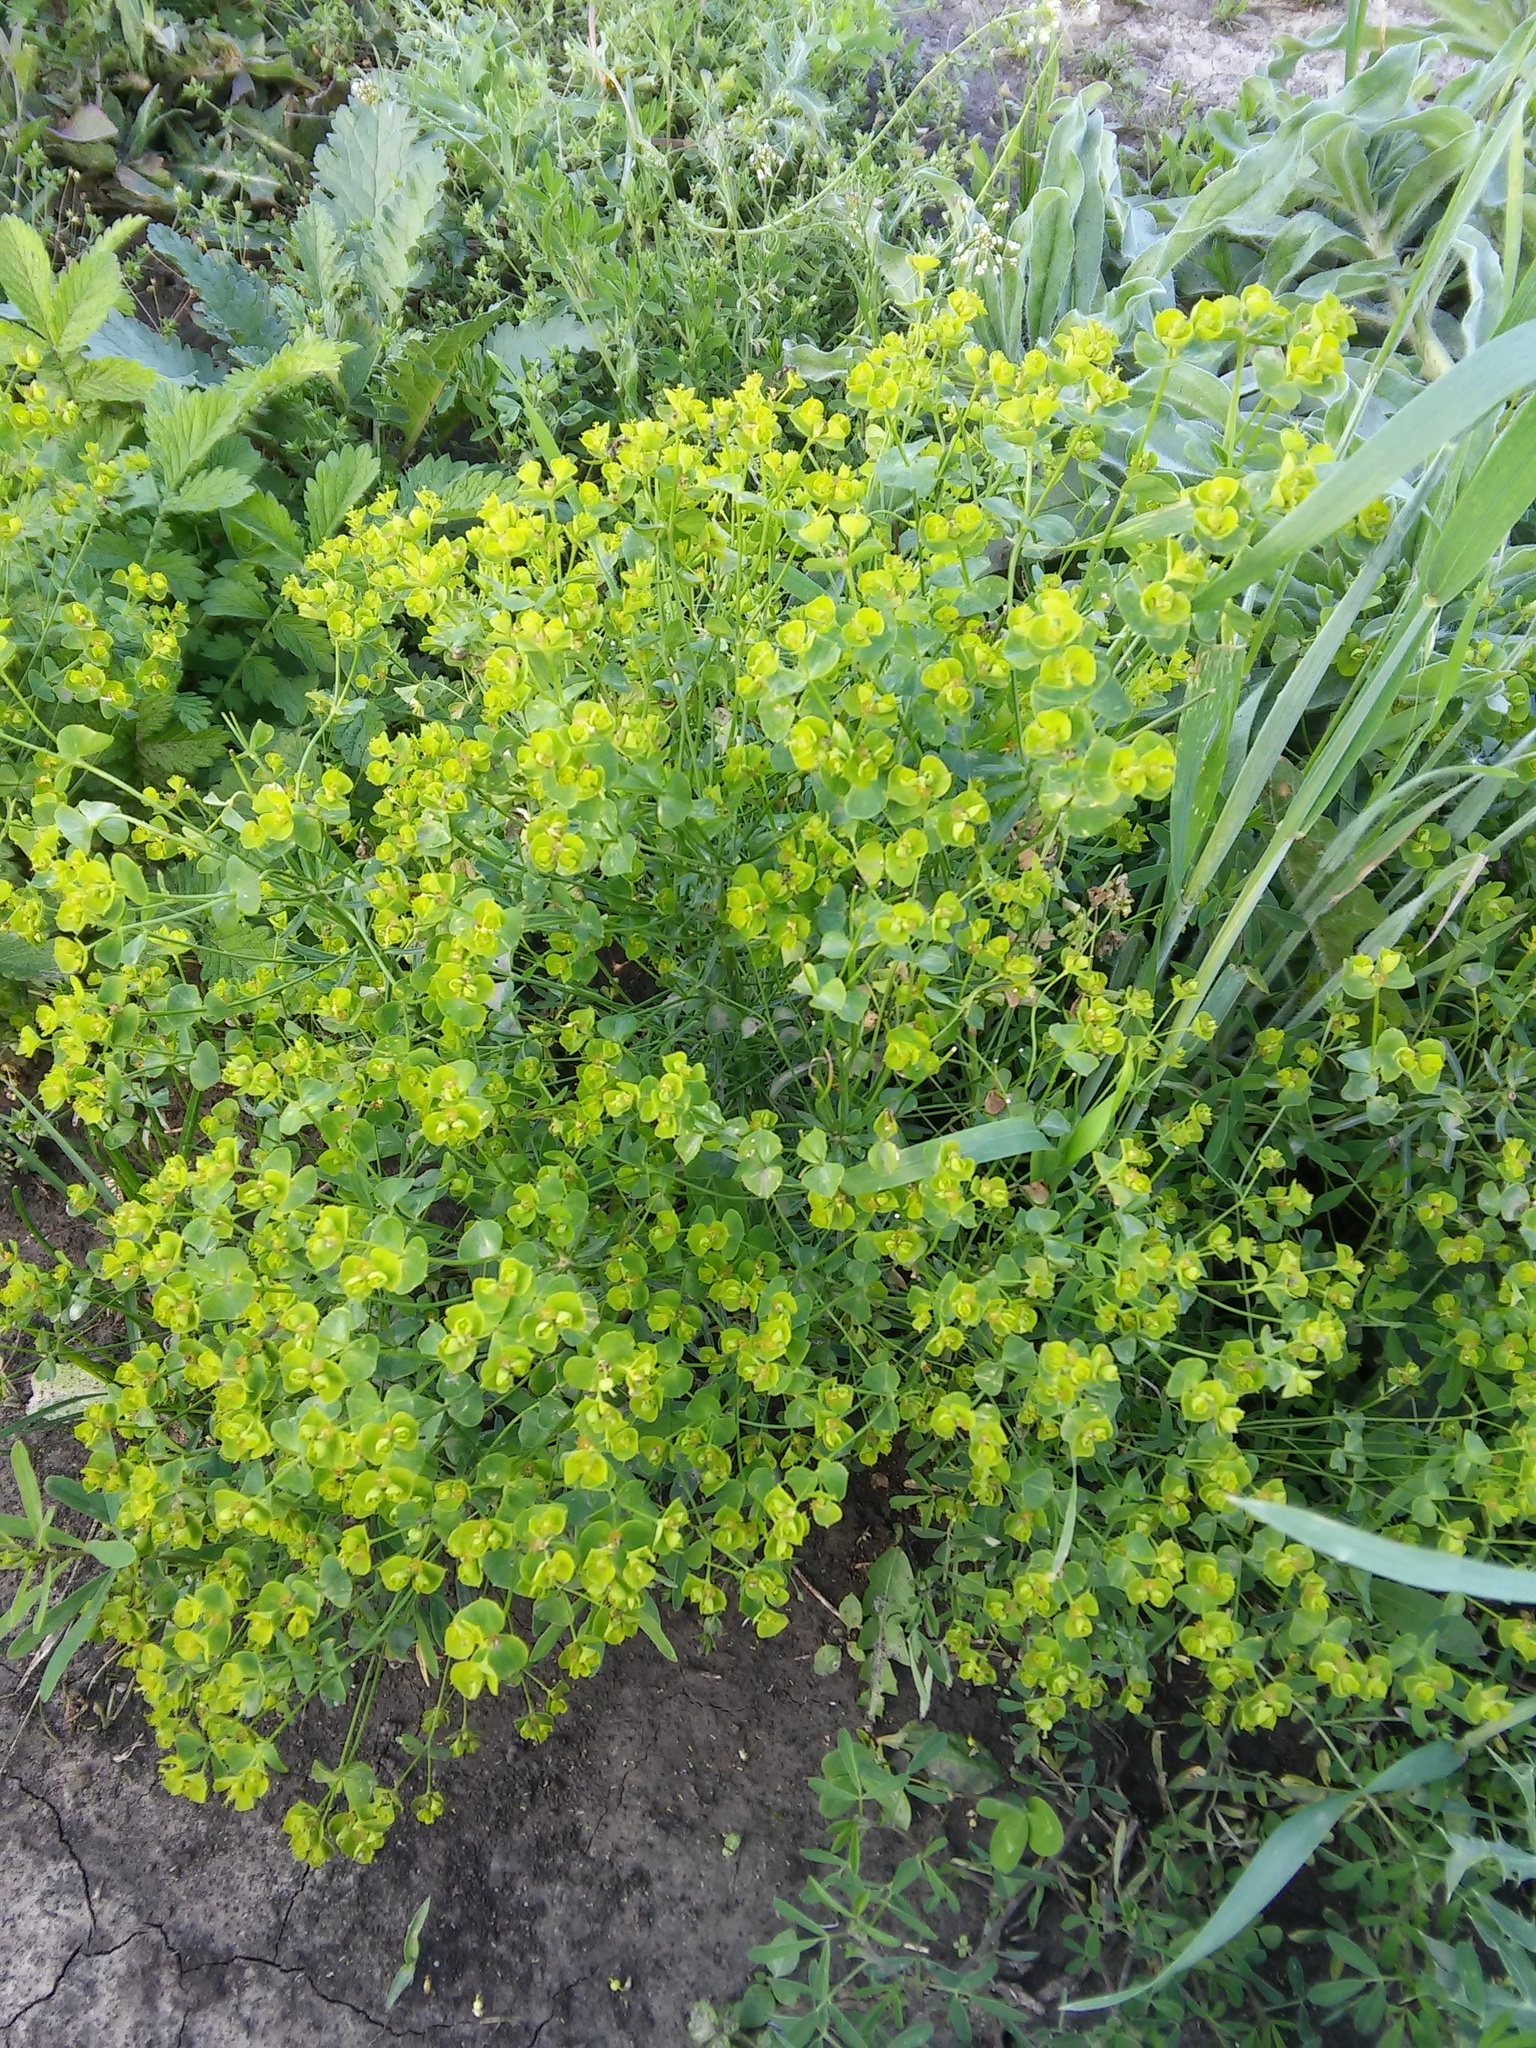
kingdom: Plantae
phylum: Tracheophyta
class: Magnoliopsida
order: Malpighiales
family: Euphorbiaceae
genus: Euphorbia
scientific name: Euphorbia virgata
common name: Leafy spurge
